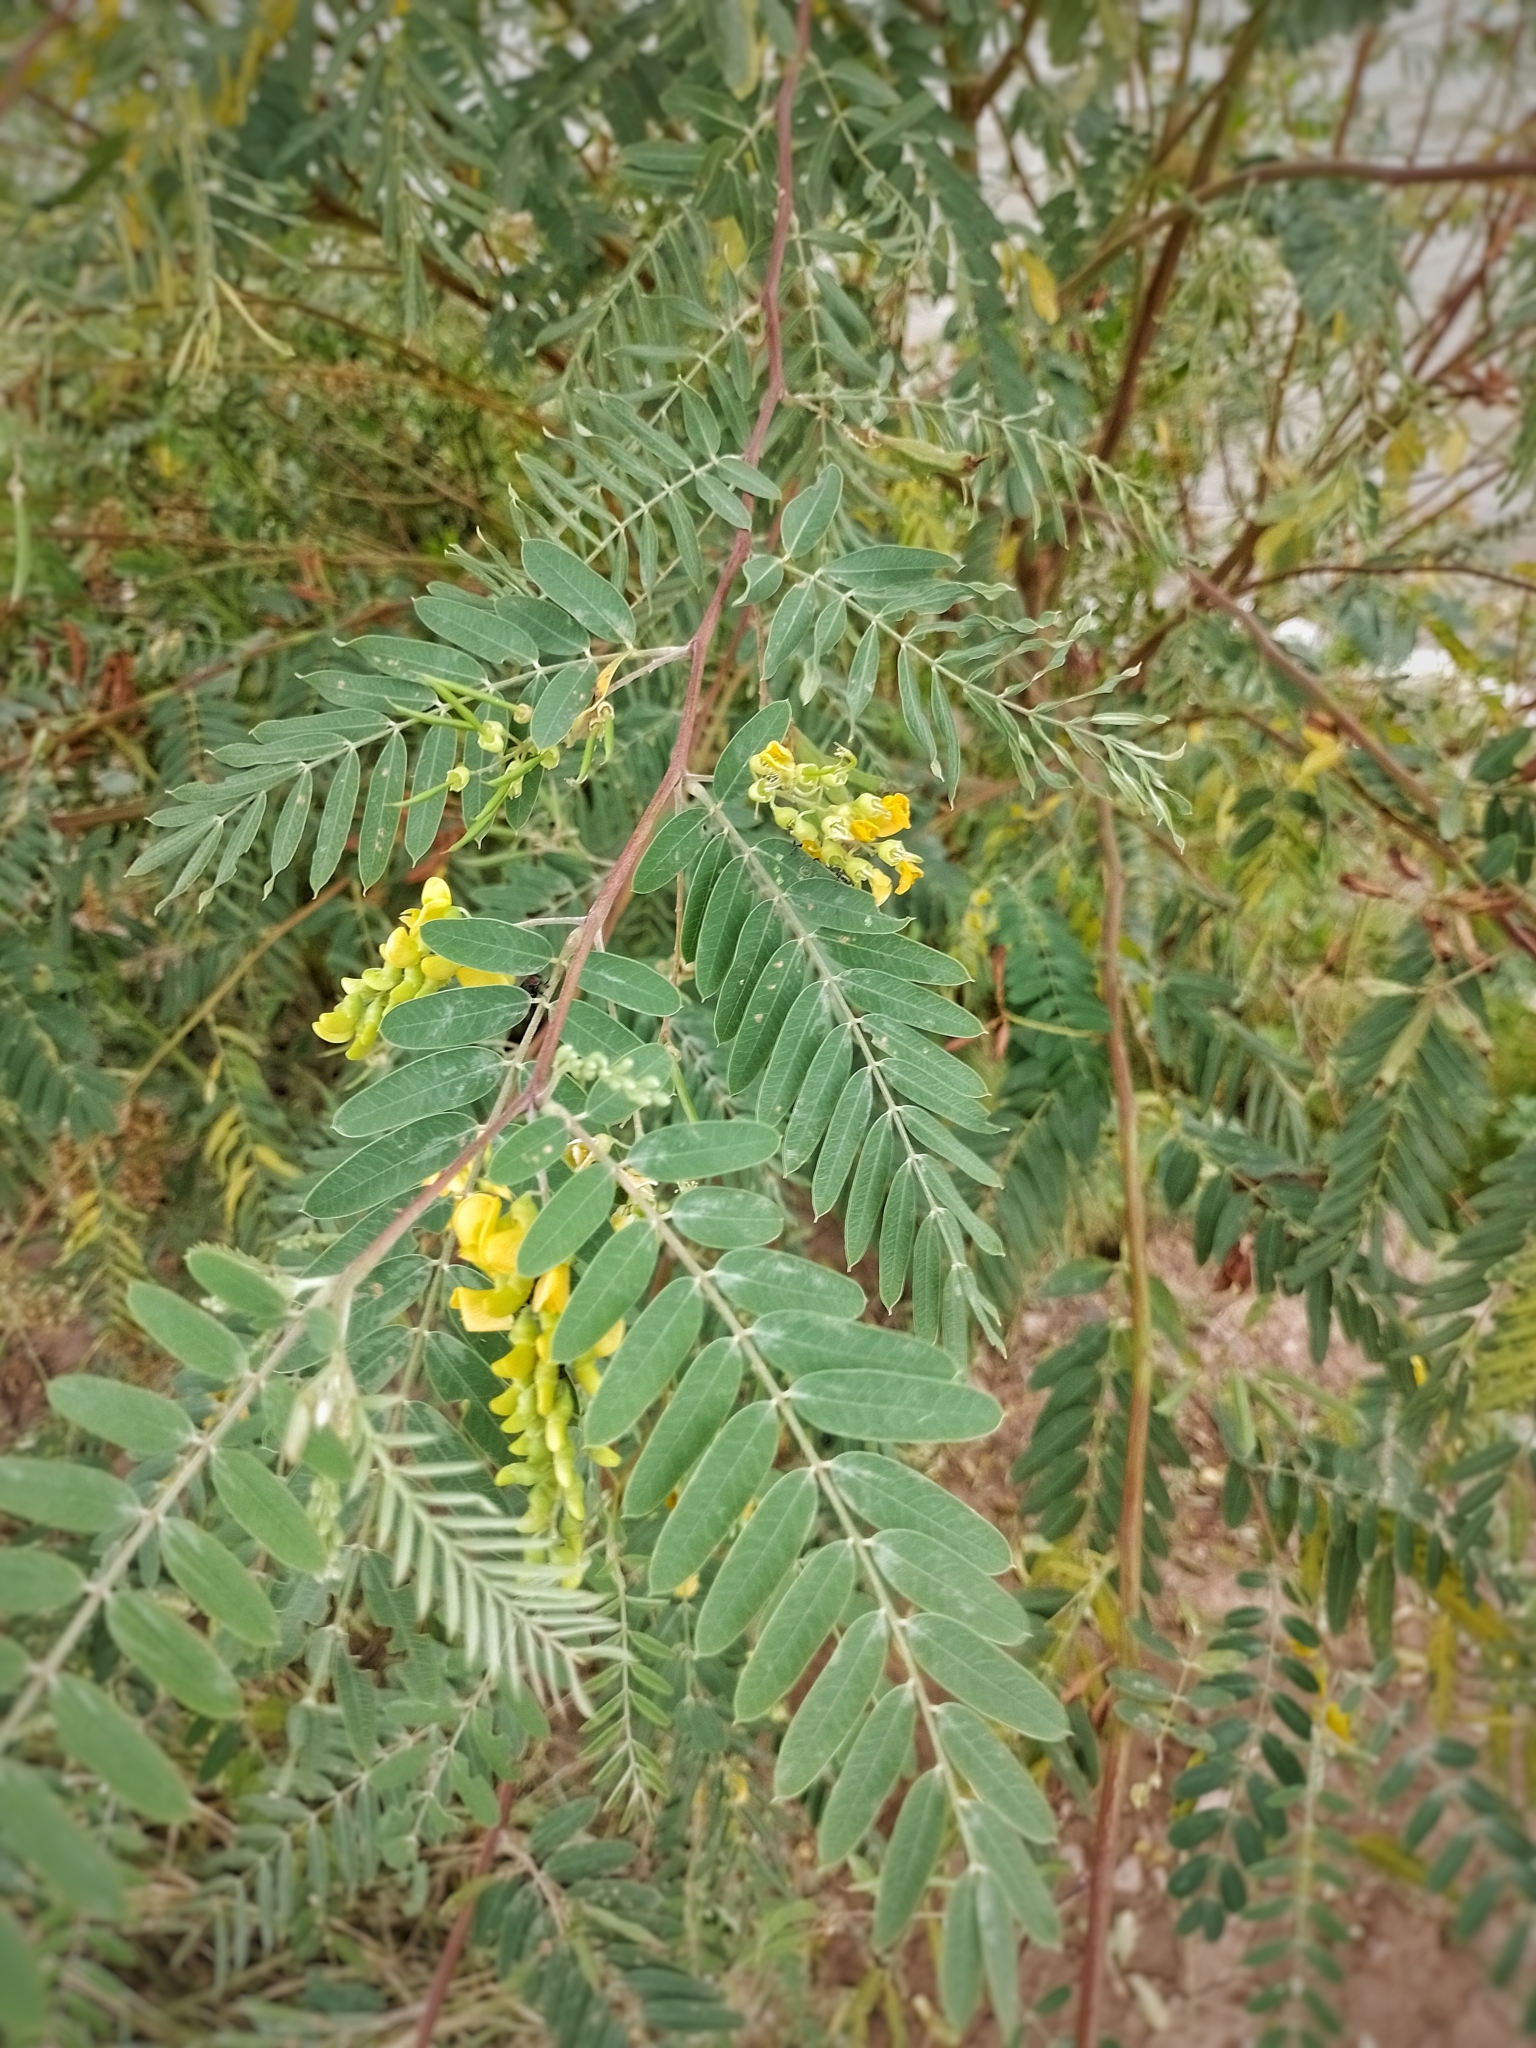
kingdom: Plantae
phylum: Tracheophyta
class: Magnoliopsida
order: Fabales
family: Fabaceae
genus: Sesbania
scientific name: Sesbania virgata
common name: Wand riverhemp
